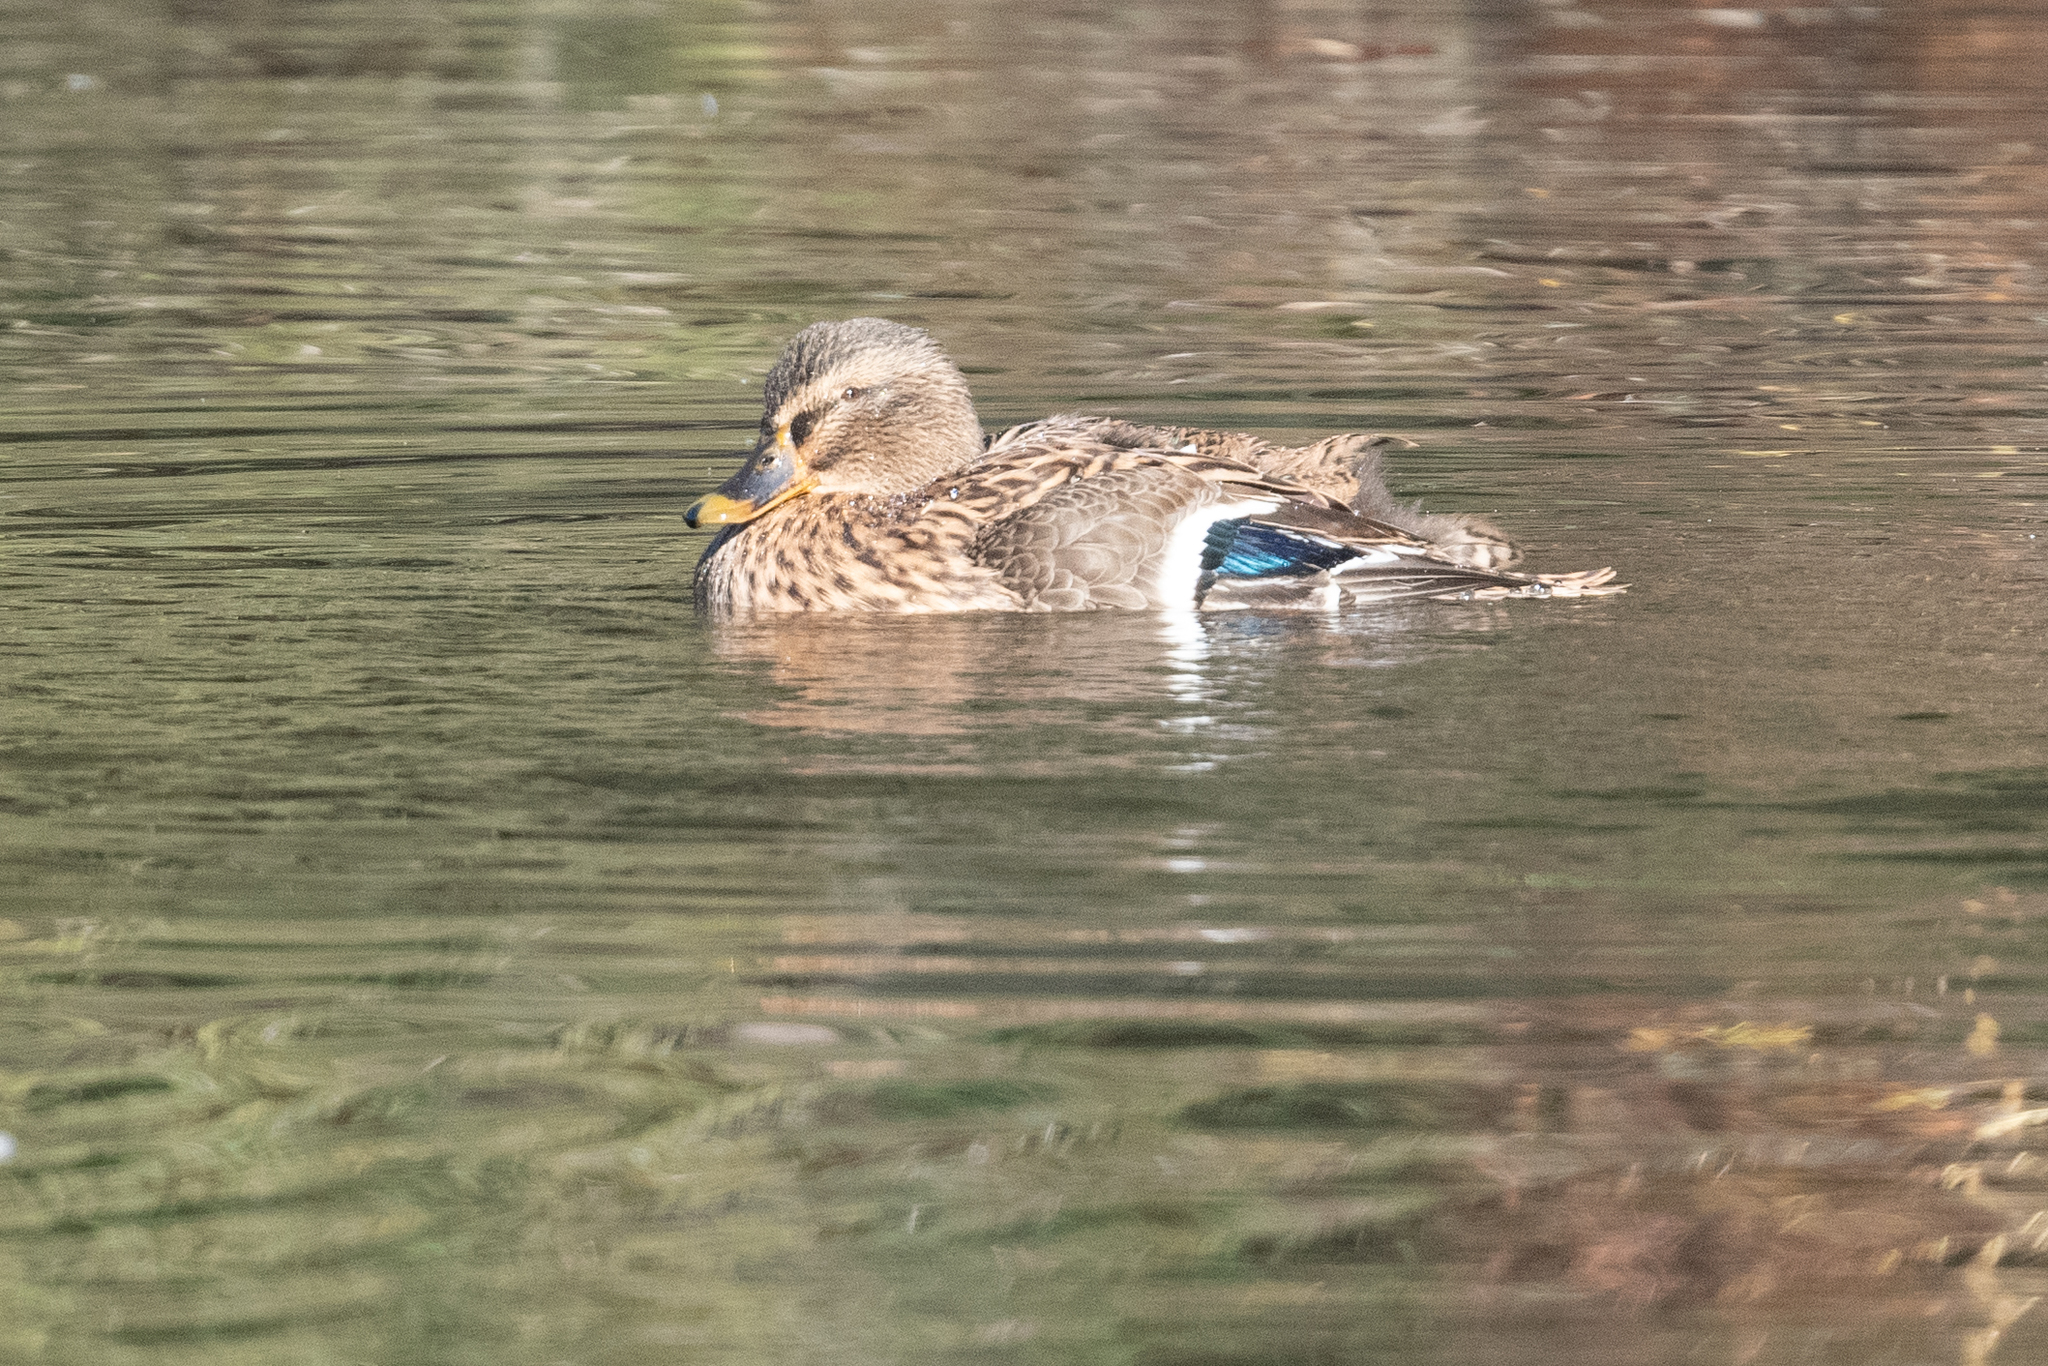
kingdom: Animalia
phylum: Chordata
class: Aves
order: Anseriformes
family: Anatidae
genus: Anas
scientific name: Anas platyrhynchos
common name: Mallard
